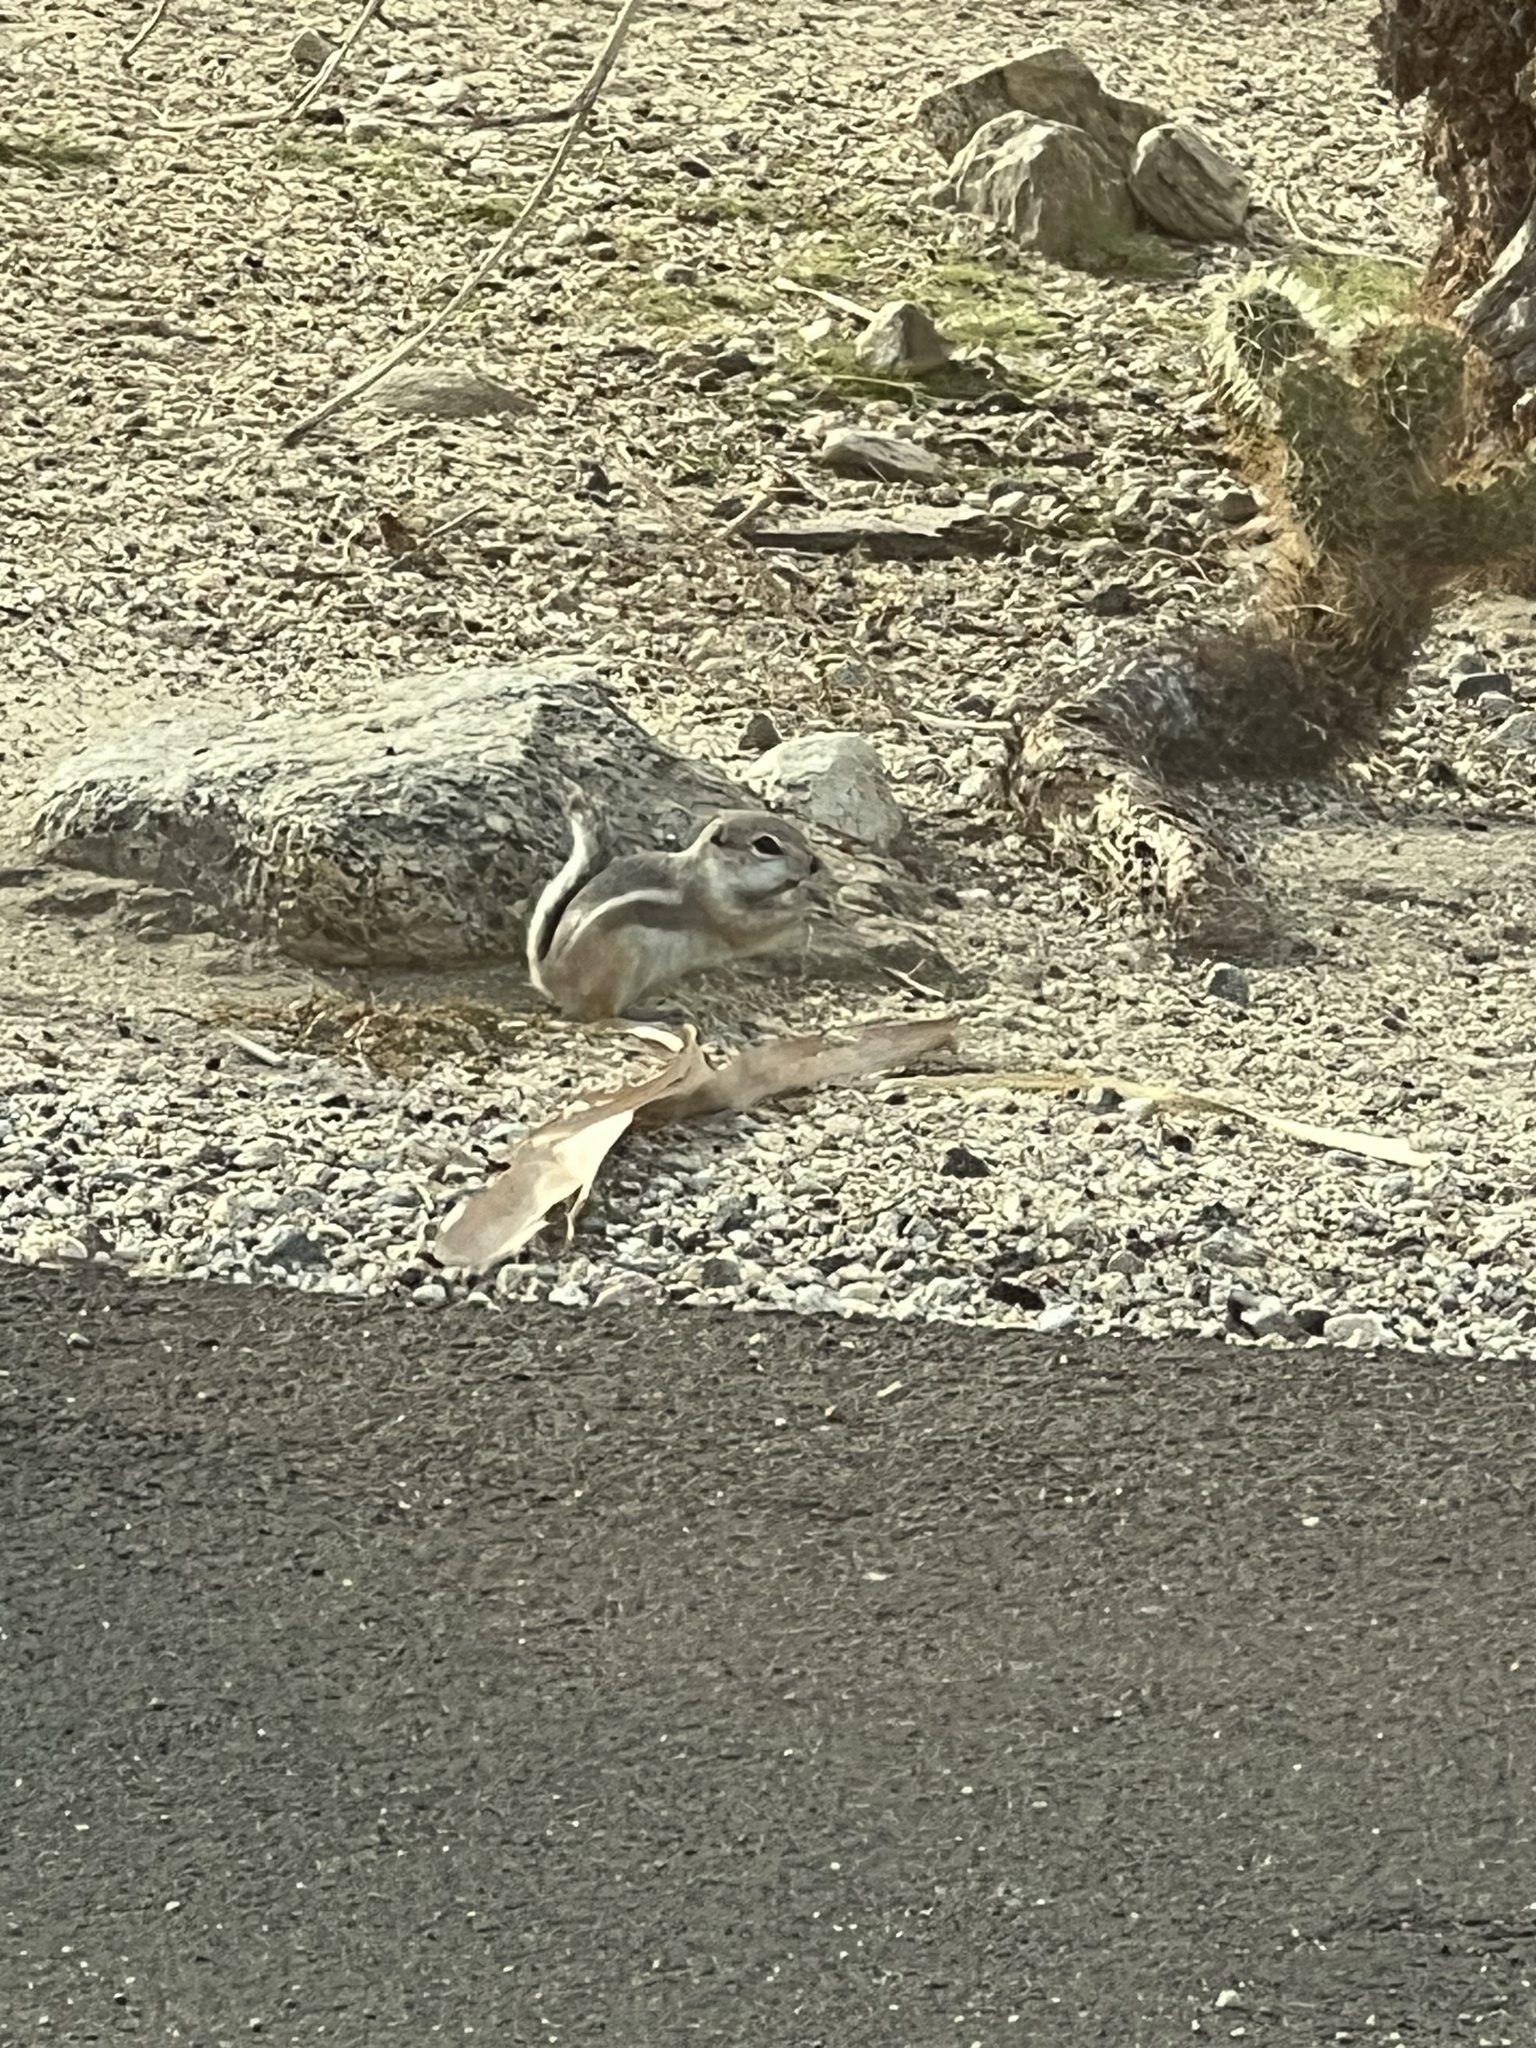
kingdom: Animalia
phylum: Chordata
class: Mammalia
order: Rodentia
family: Sciuridae
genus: Ammospermophilus
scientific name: Ammospermophilus leucurus
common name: White-tailed antelope squirrel
